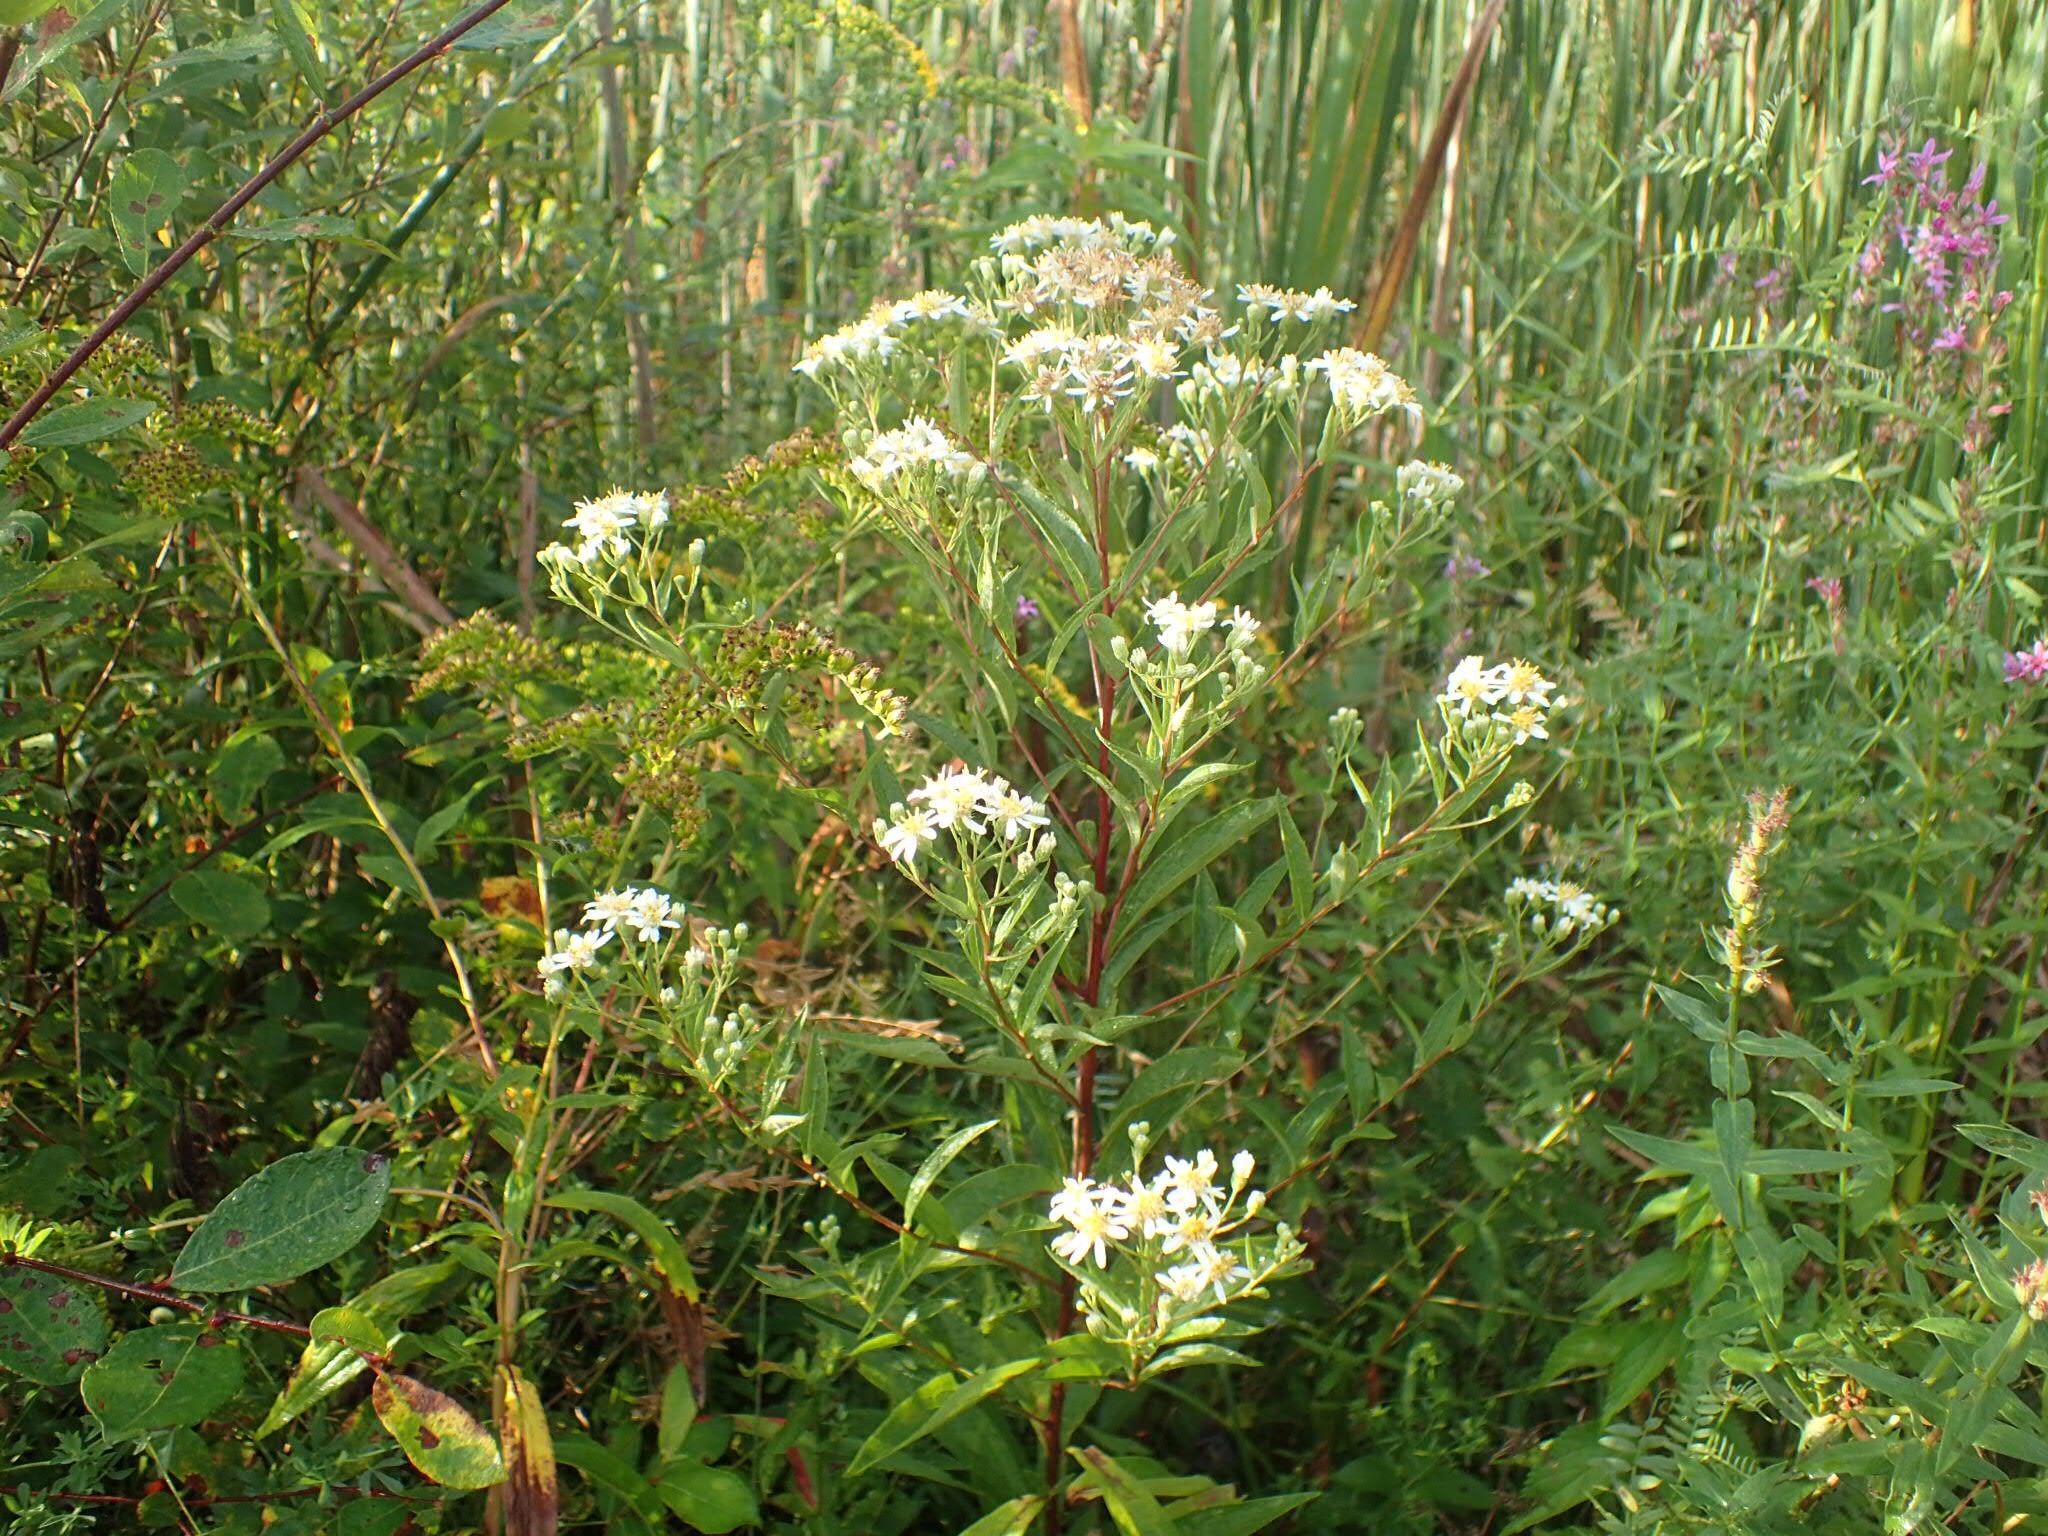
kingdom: Plantae
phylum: Tracheophyta
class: Magnoliopsida
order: Asterales
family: Asteraceae
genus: Doellingeria
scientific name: Doellingeria umbellata
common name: Flat-top white aster
